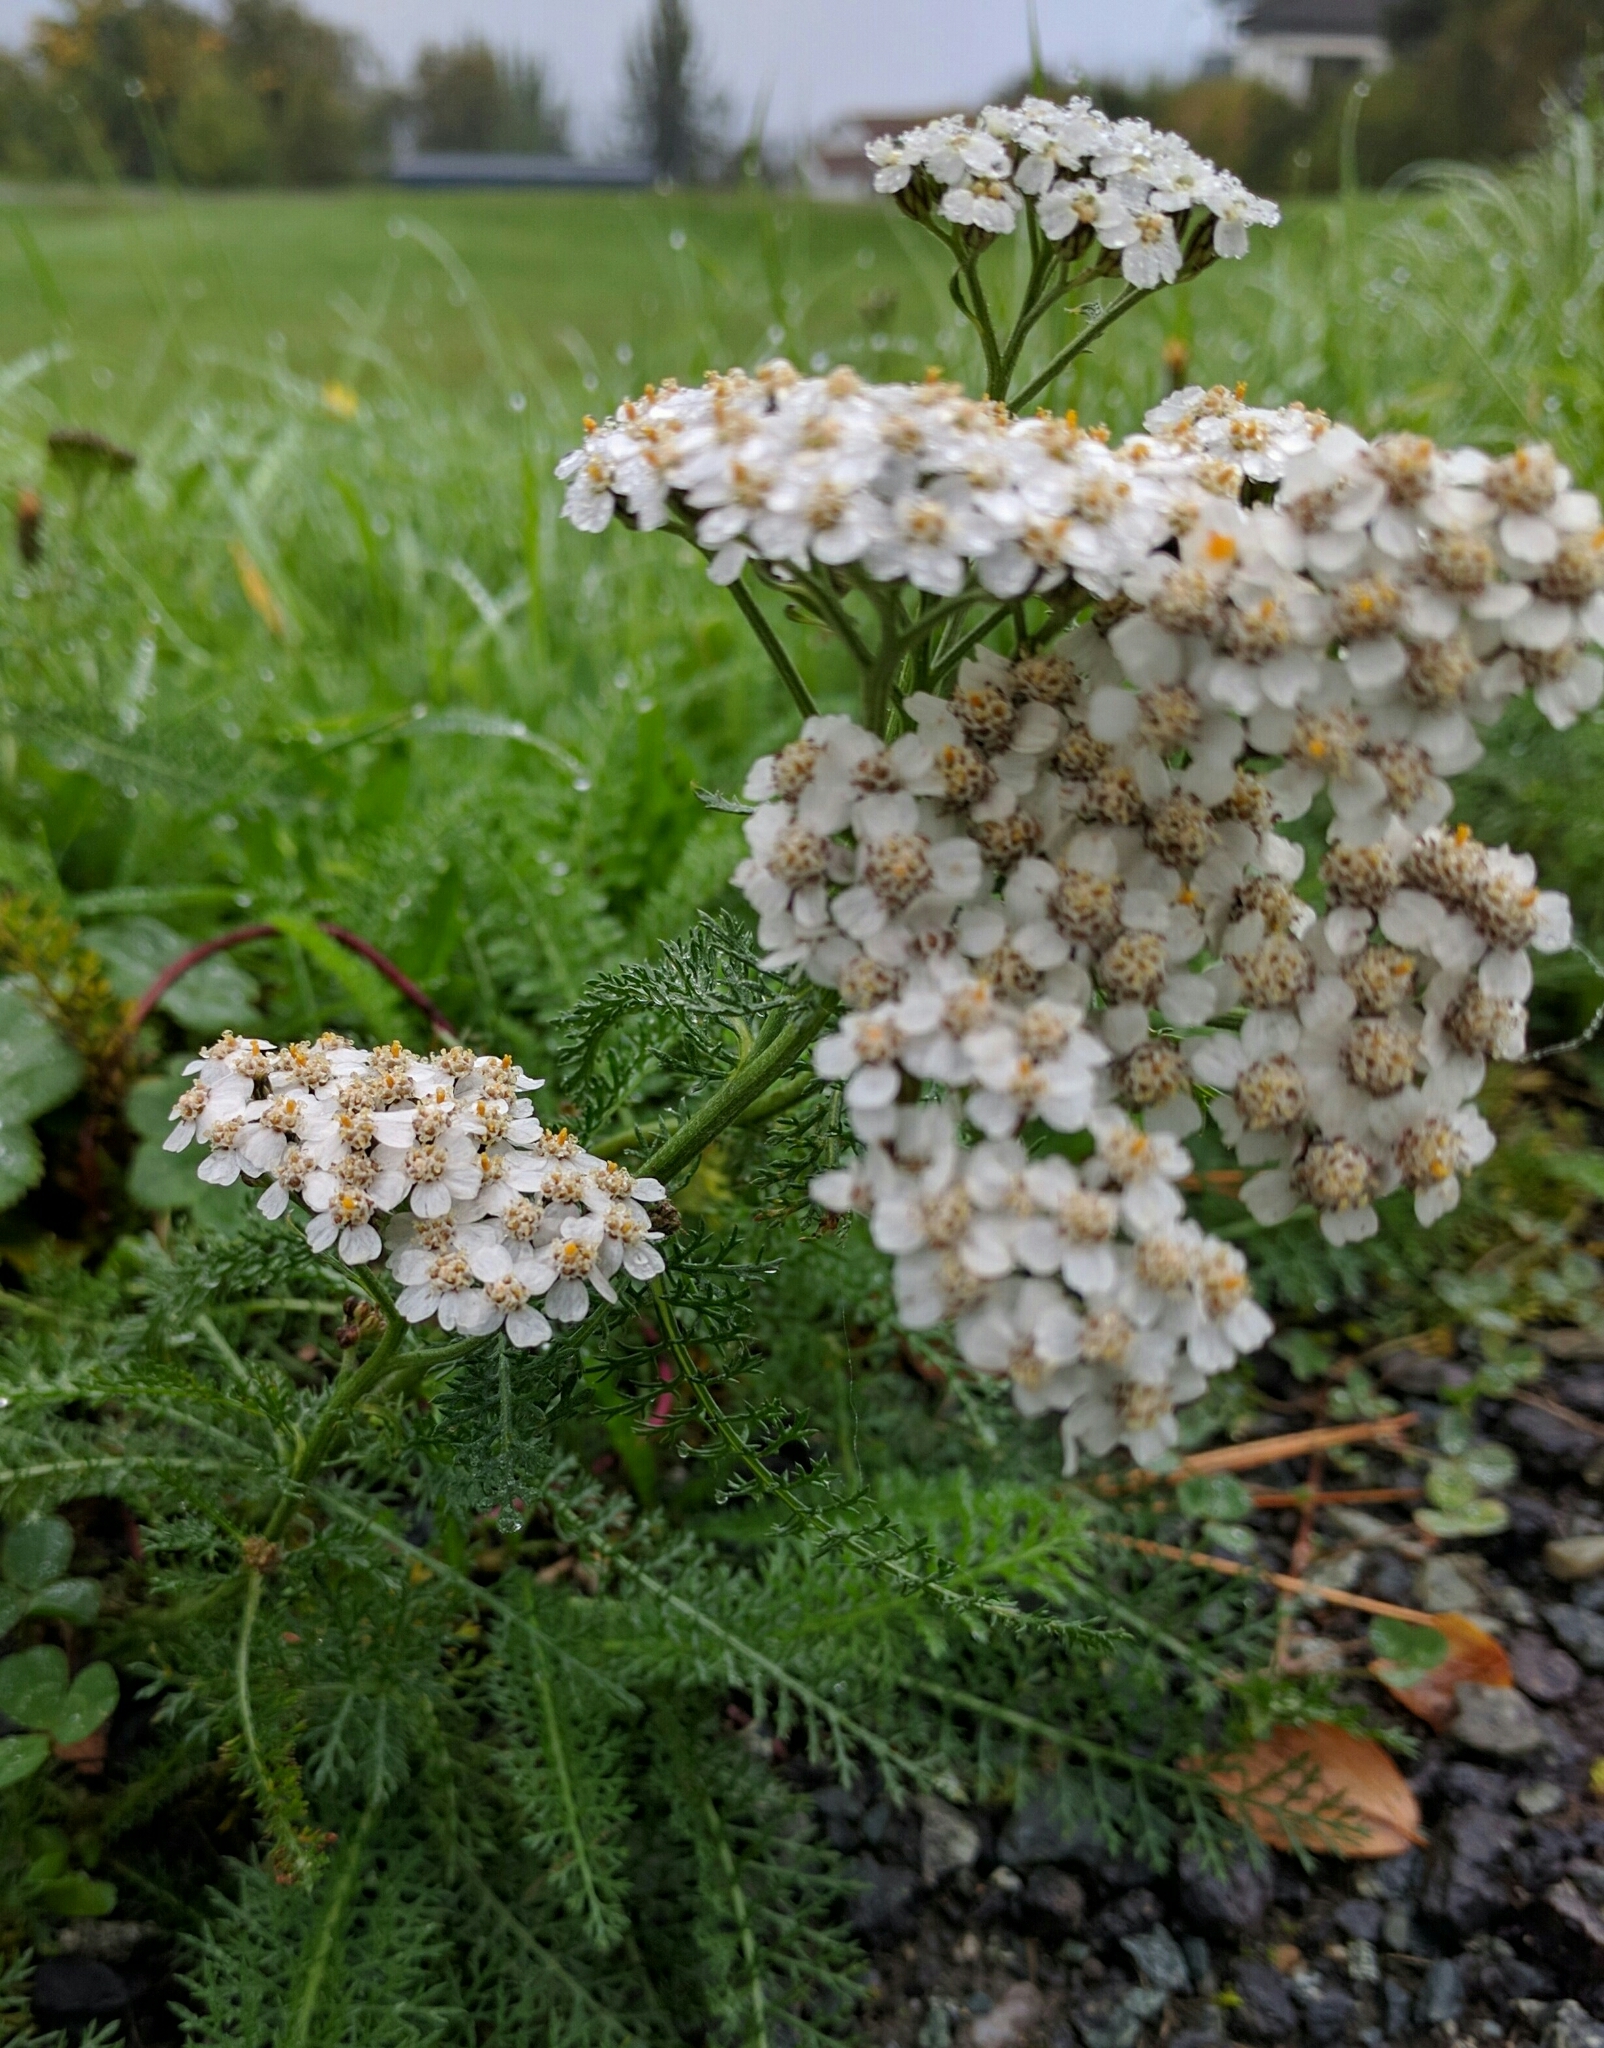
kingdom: Plantae
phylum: Tracheophyta
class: Magnoliopsida
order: Asterales
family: Asteraceae
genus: Achillea
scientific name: Achillea millefolium
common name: Yarrow
